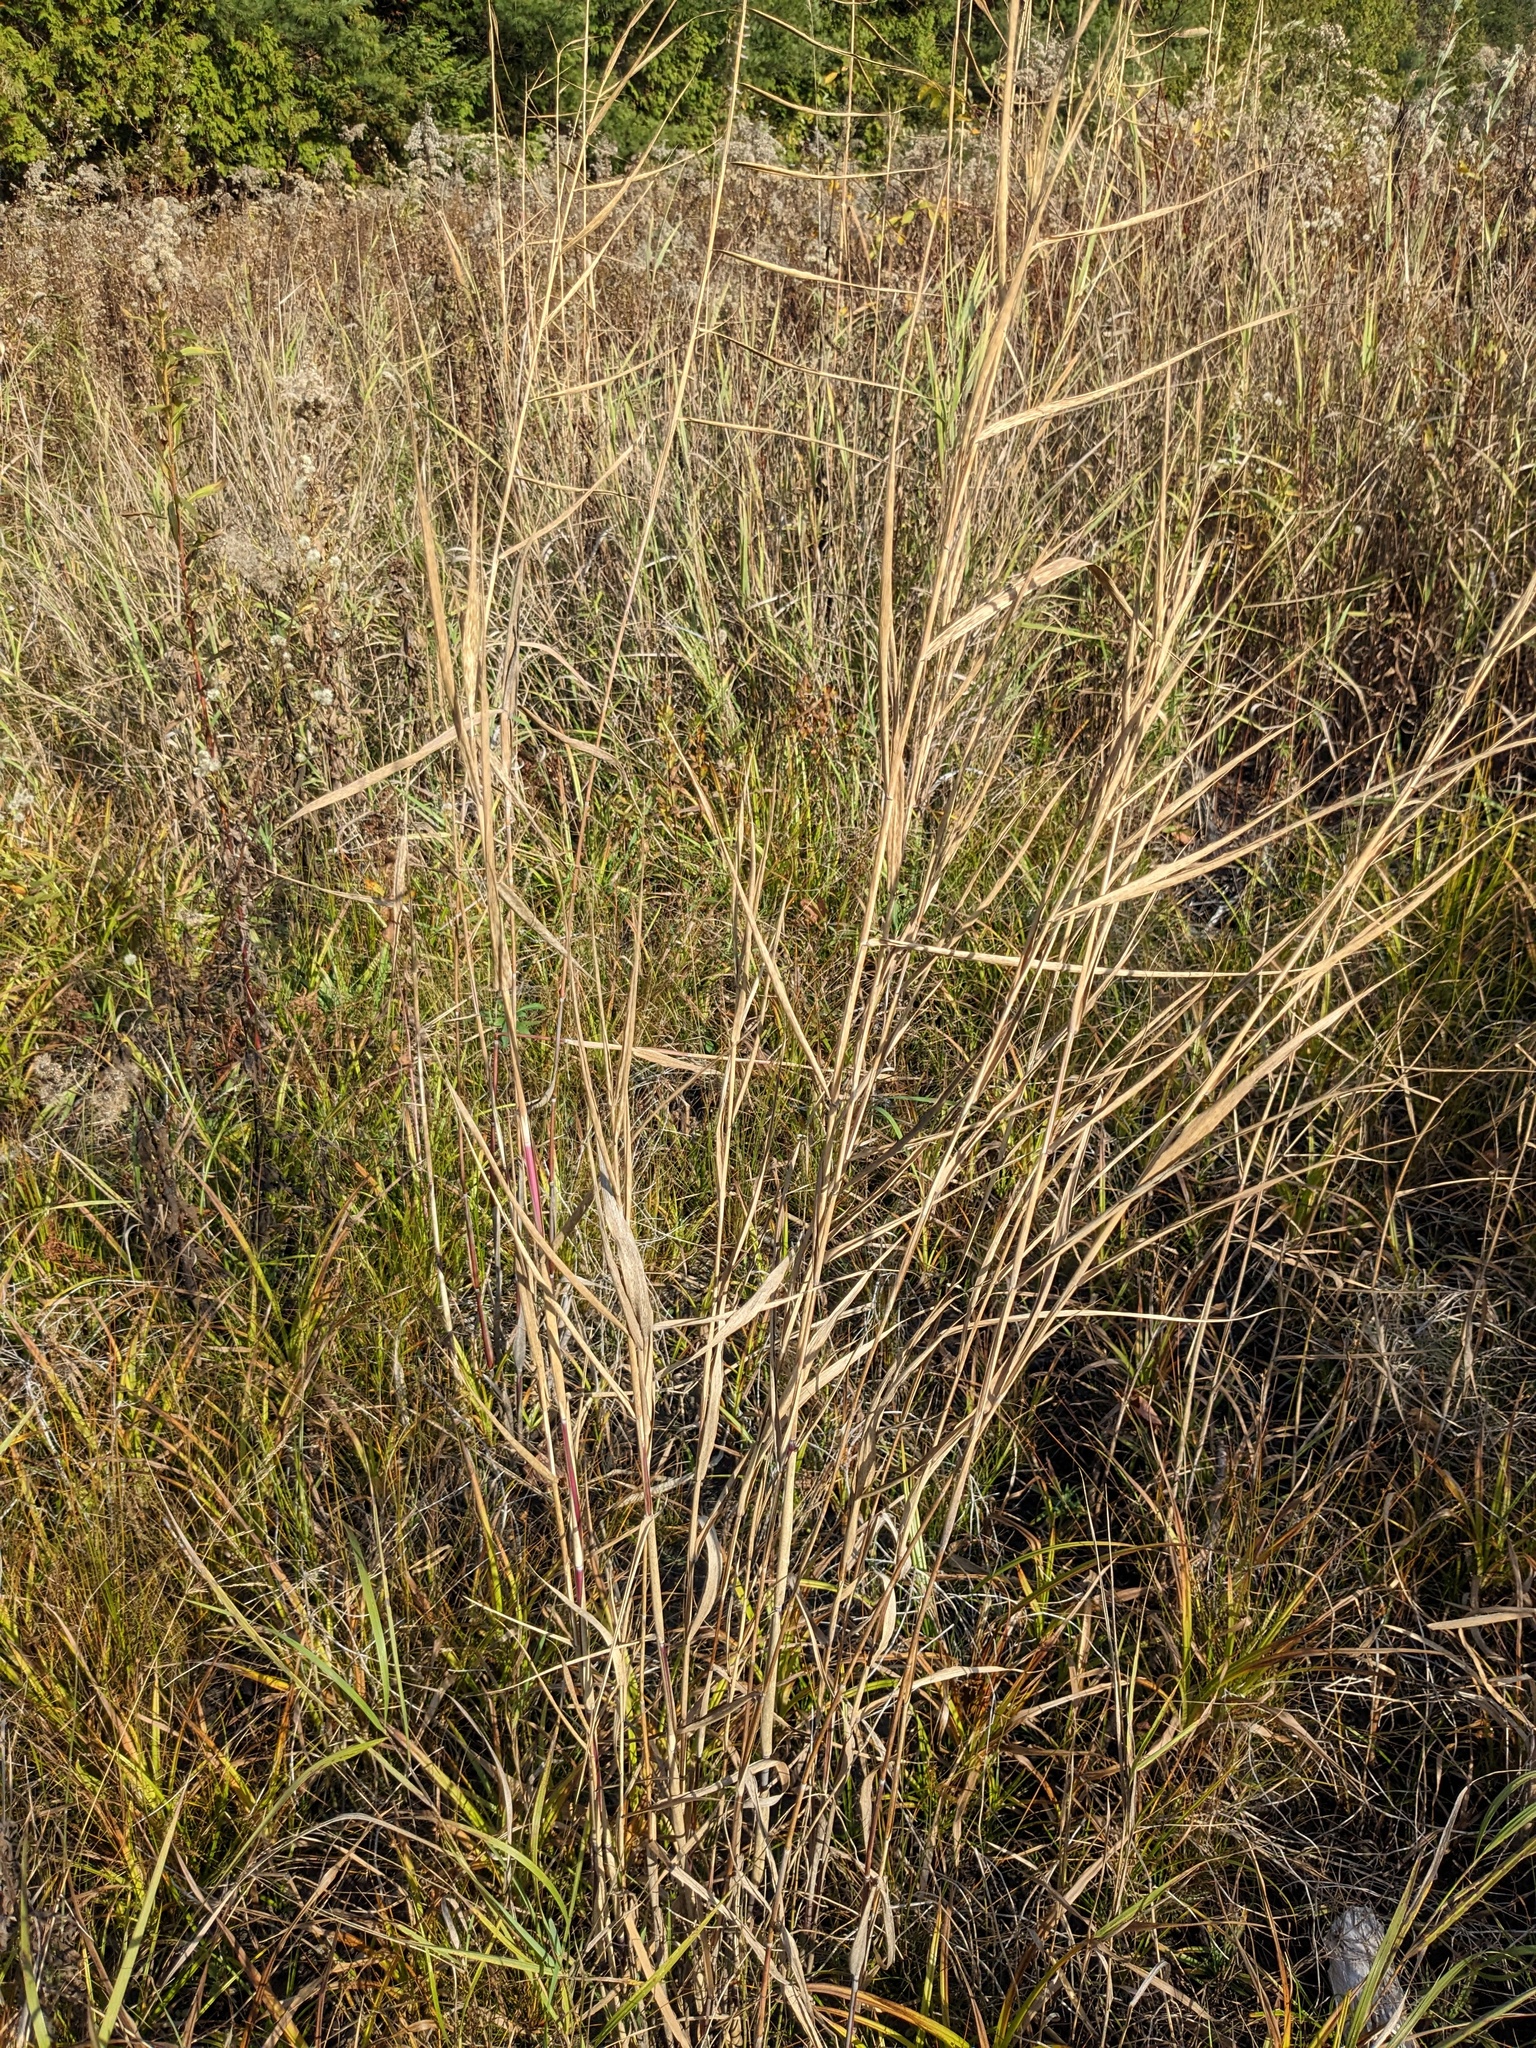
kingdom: Plantae
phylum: Tracheophyta
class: Liliopsida
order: Poales
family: Poaceae
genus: Phragmites
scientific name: Phragmites australis
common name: Common reed
